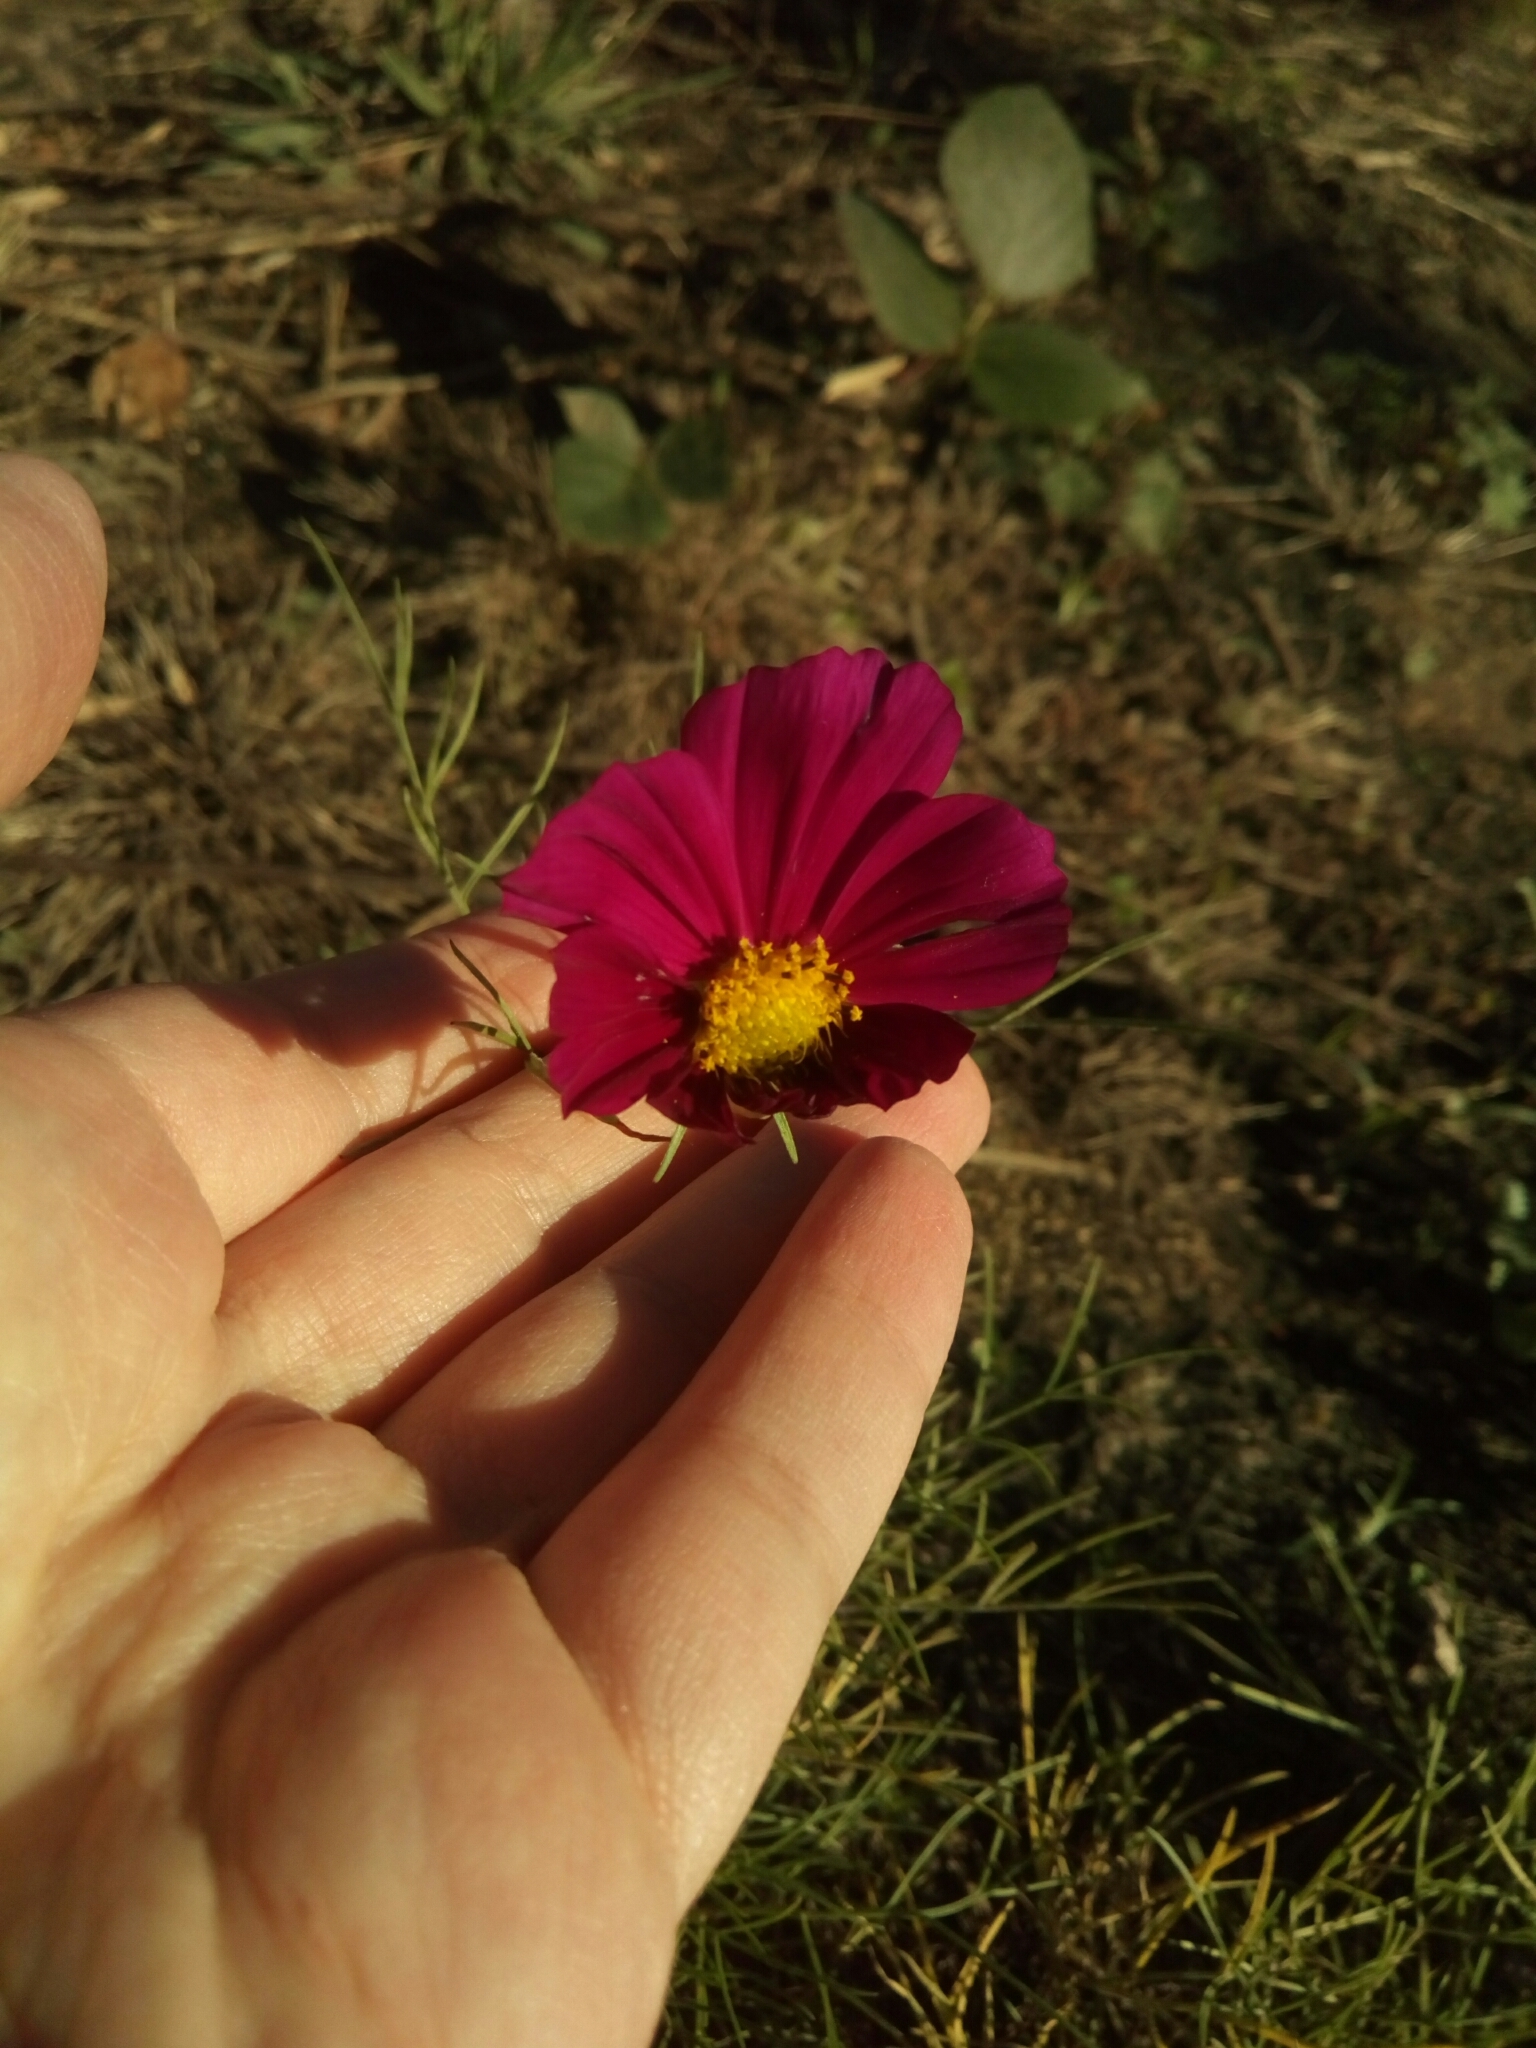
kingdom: Plantae
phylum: Tracheophyta
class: Magnoliopsida
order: Asterales
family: Asteraceae
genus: Cosmos
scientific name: Cosmos bipinnatus
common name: Garden cosmos
